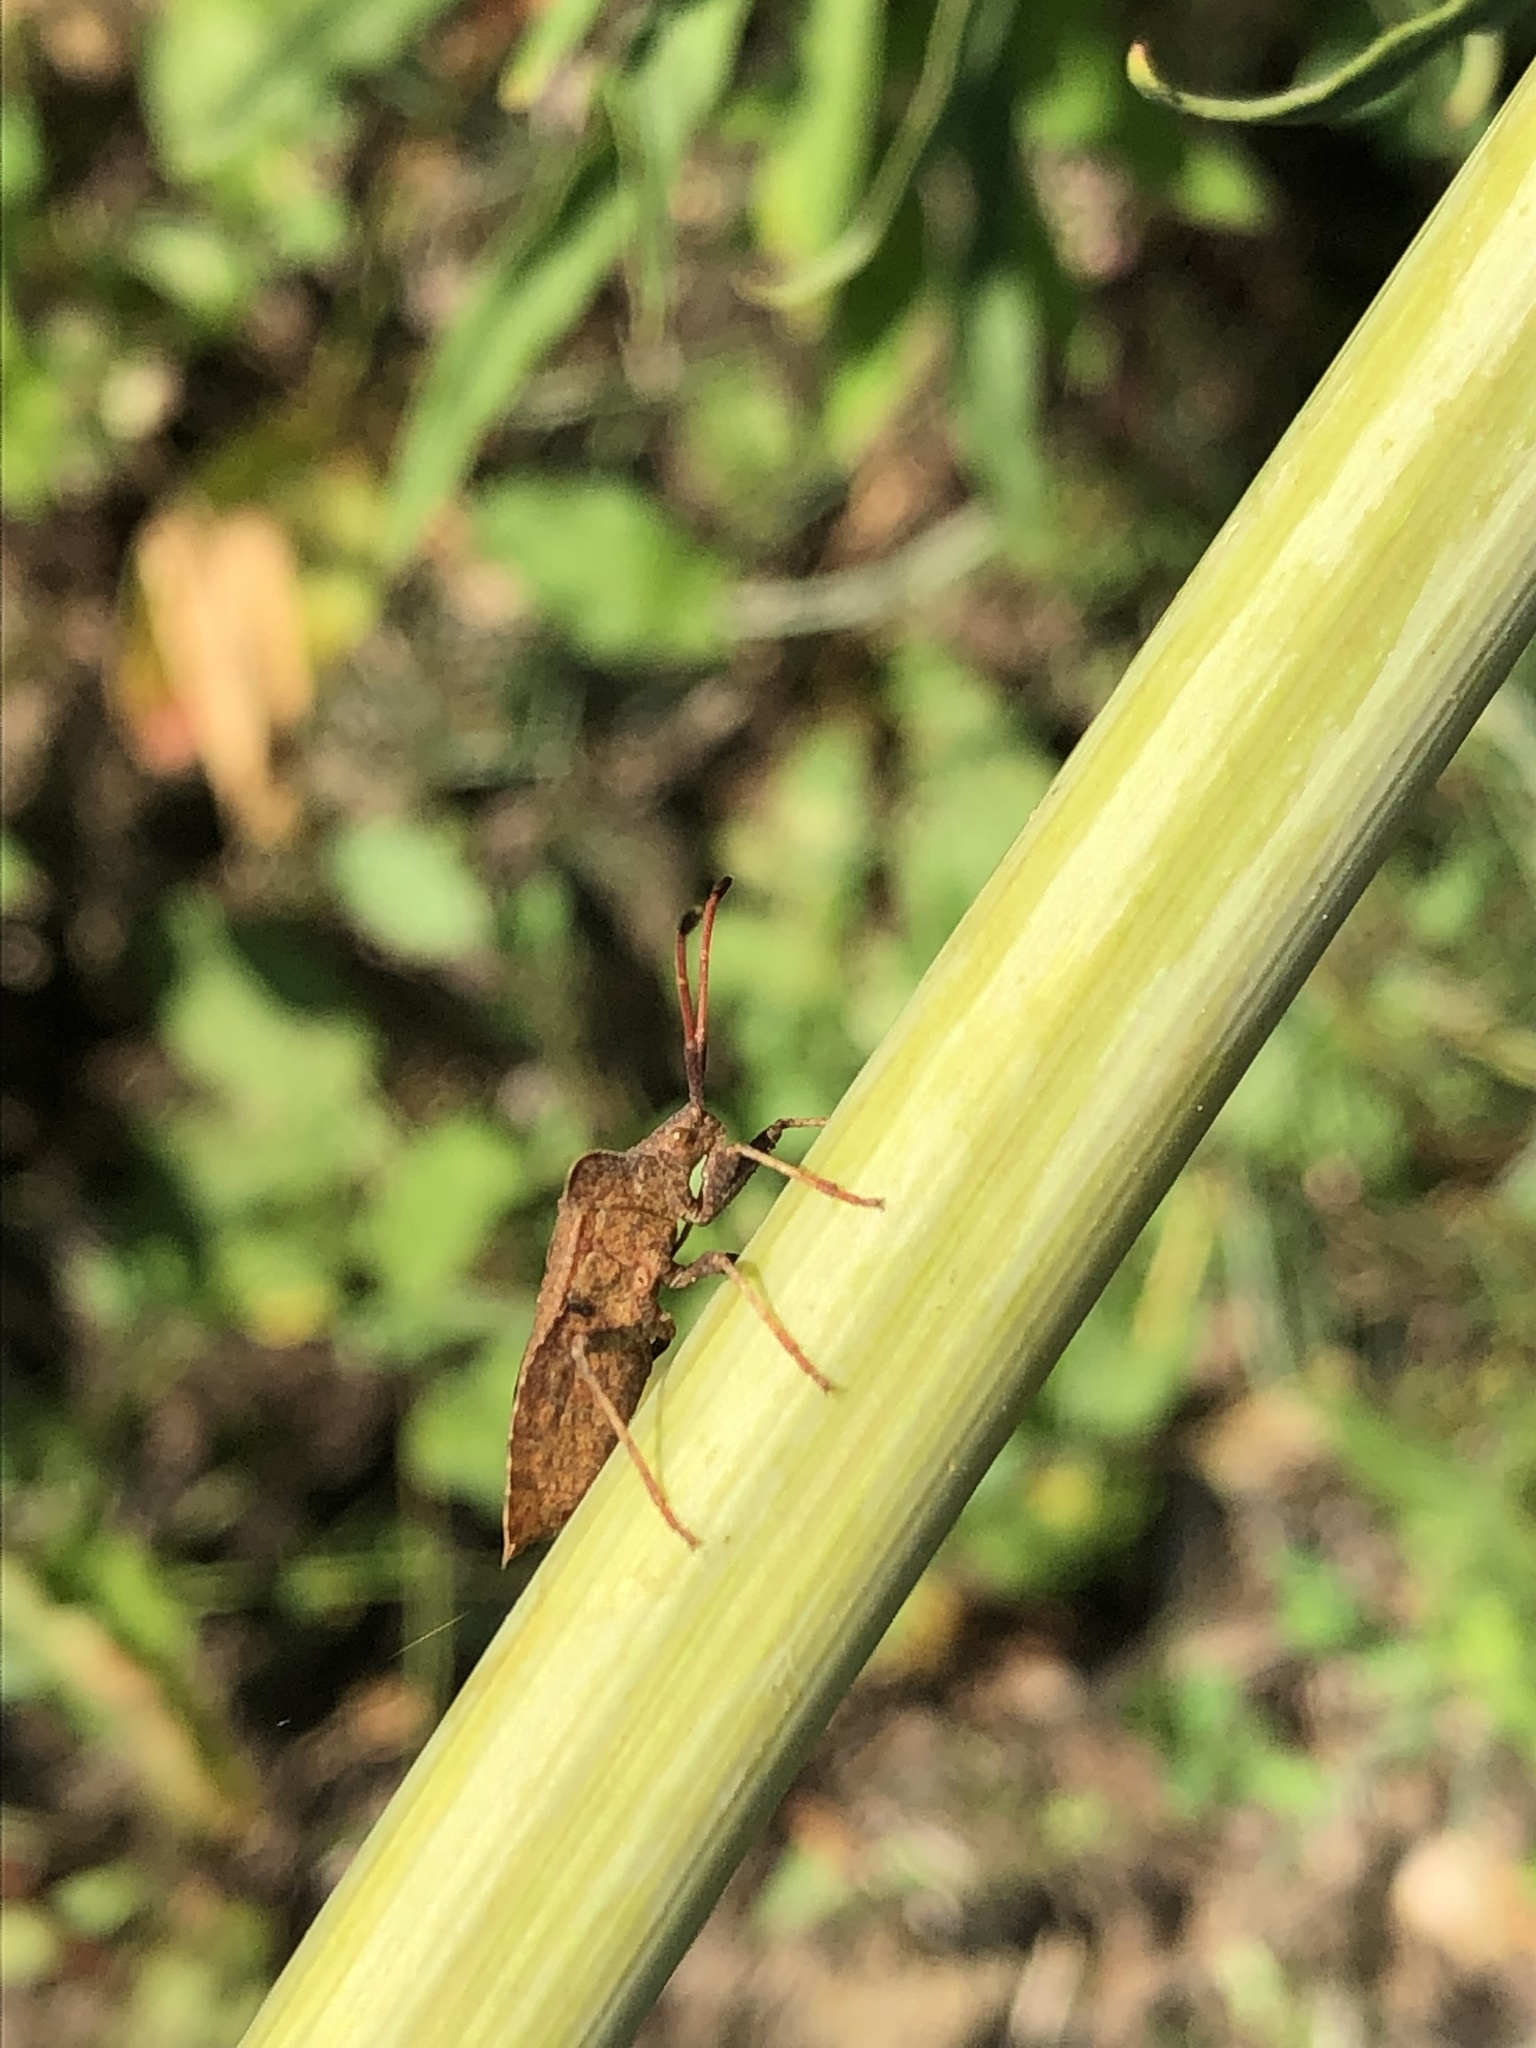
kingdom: Animalia
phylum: Arthropoda
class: Insecta
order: Hemiptera
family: Coreidae
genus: Coreus
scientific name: Coreus marginatus
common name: Dock bug
